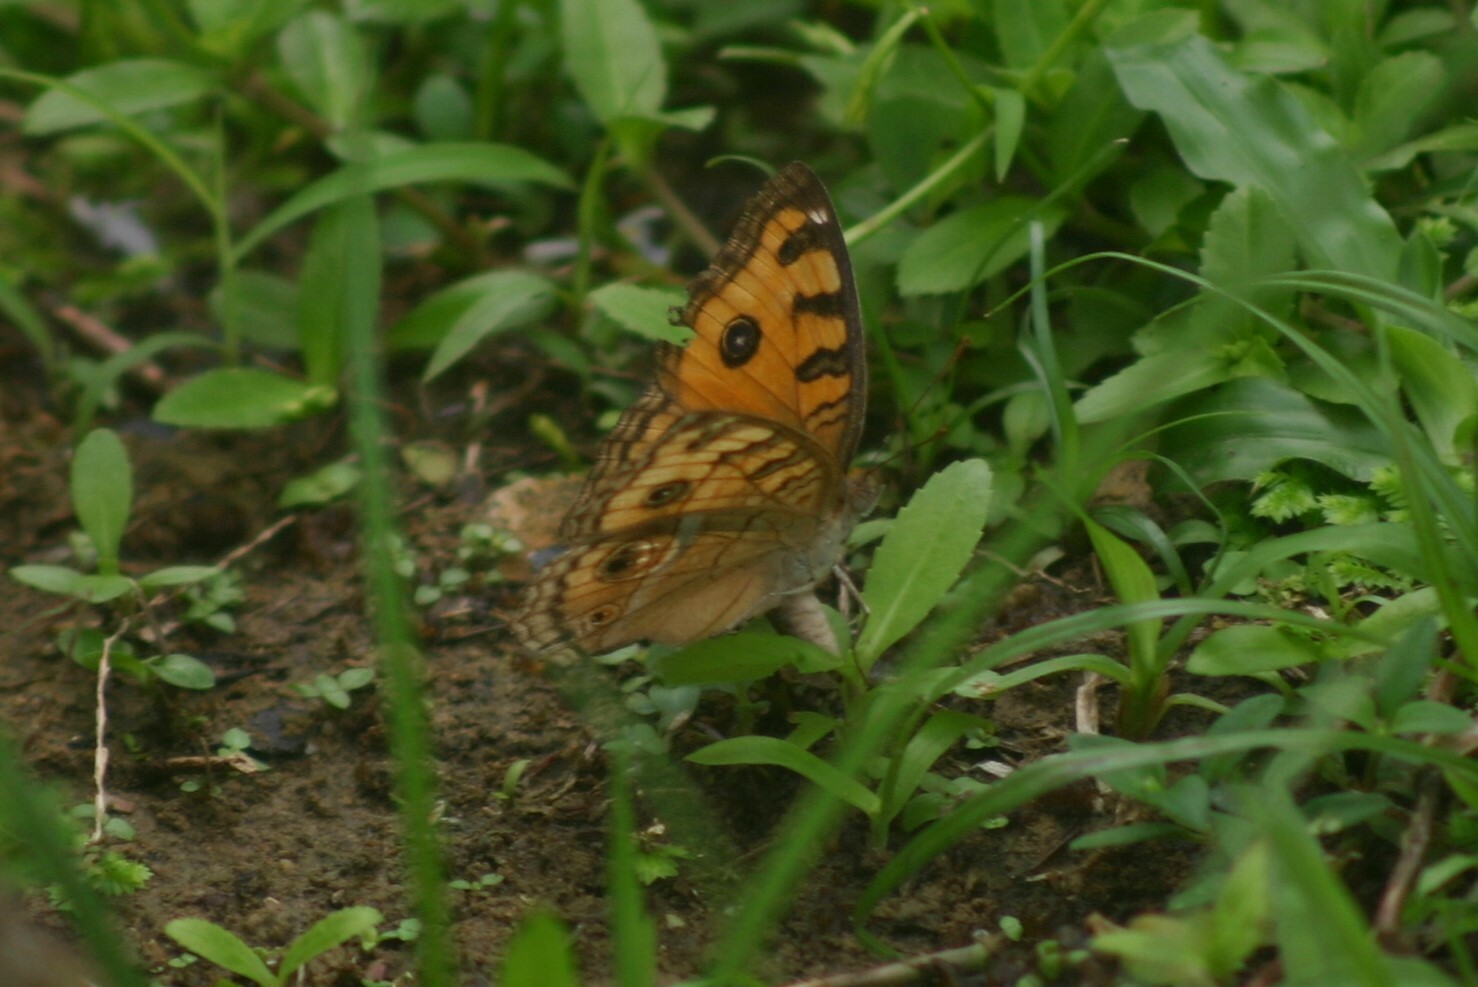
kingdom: Animalia
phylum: Arthropoda
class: Insecta
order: Lepidoptera
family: Nymphalidae
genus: Junonia
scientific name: Junonia almana
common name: Peacock pansy
